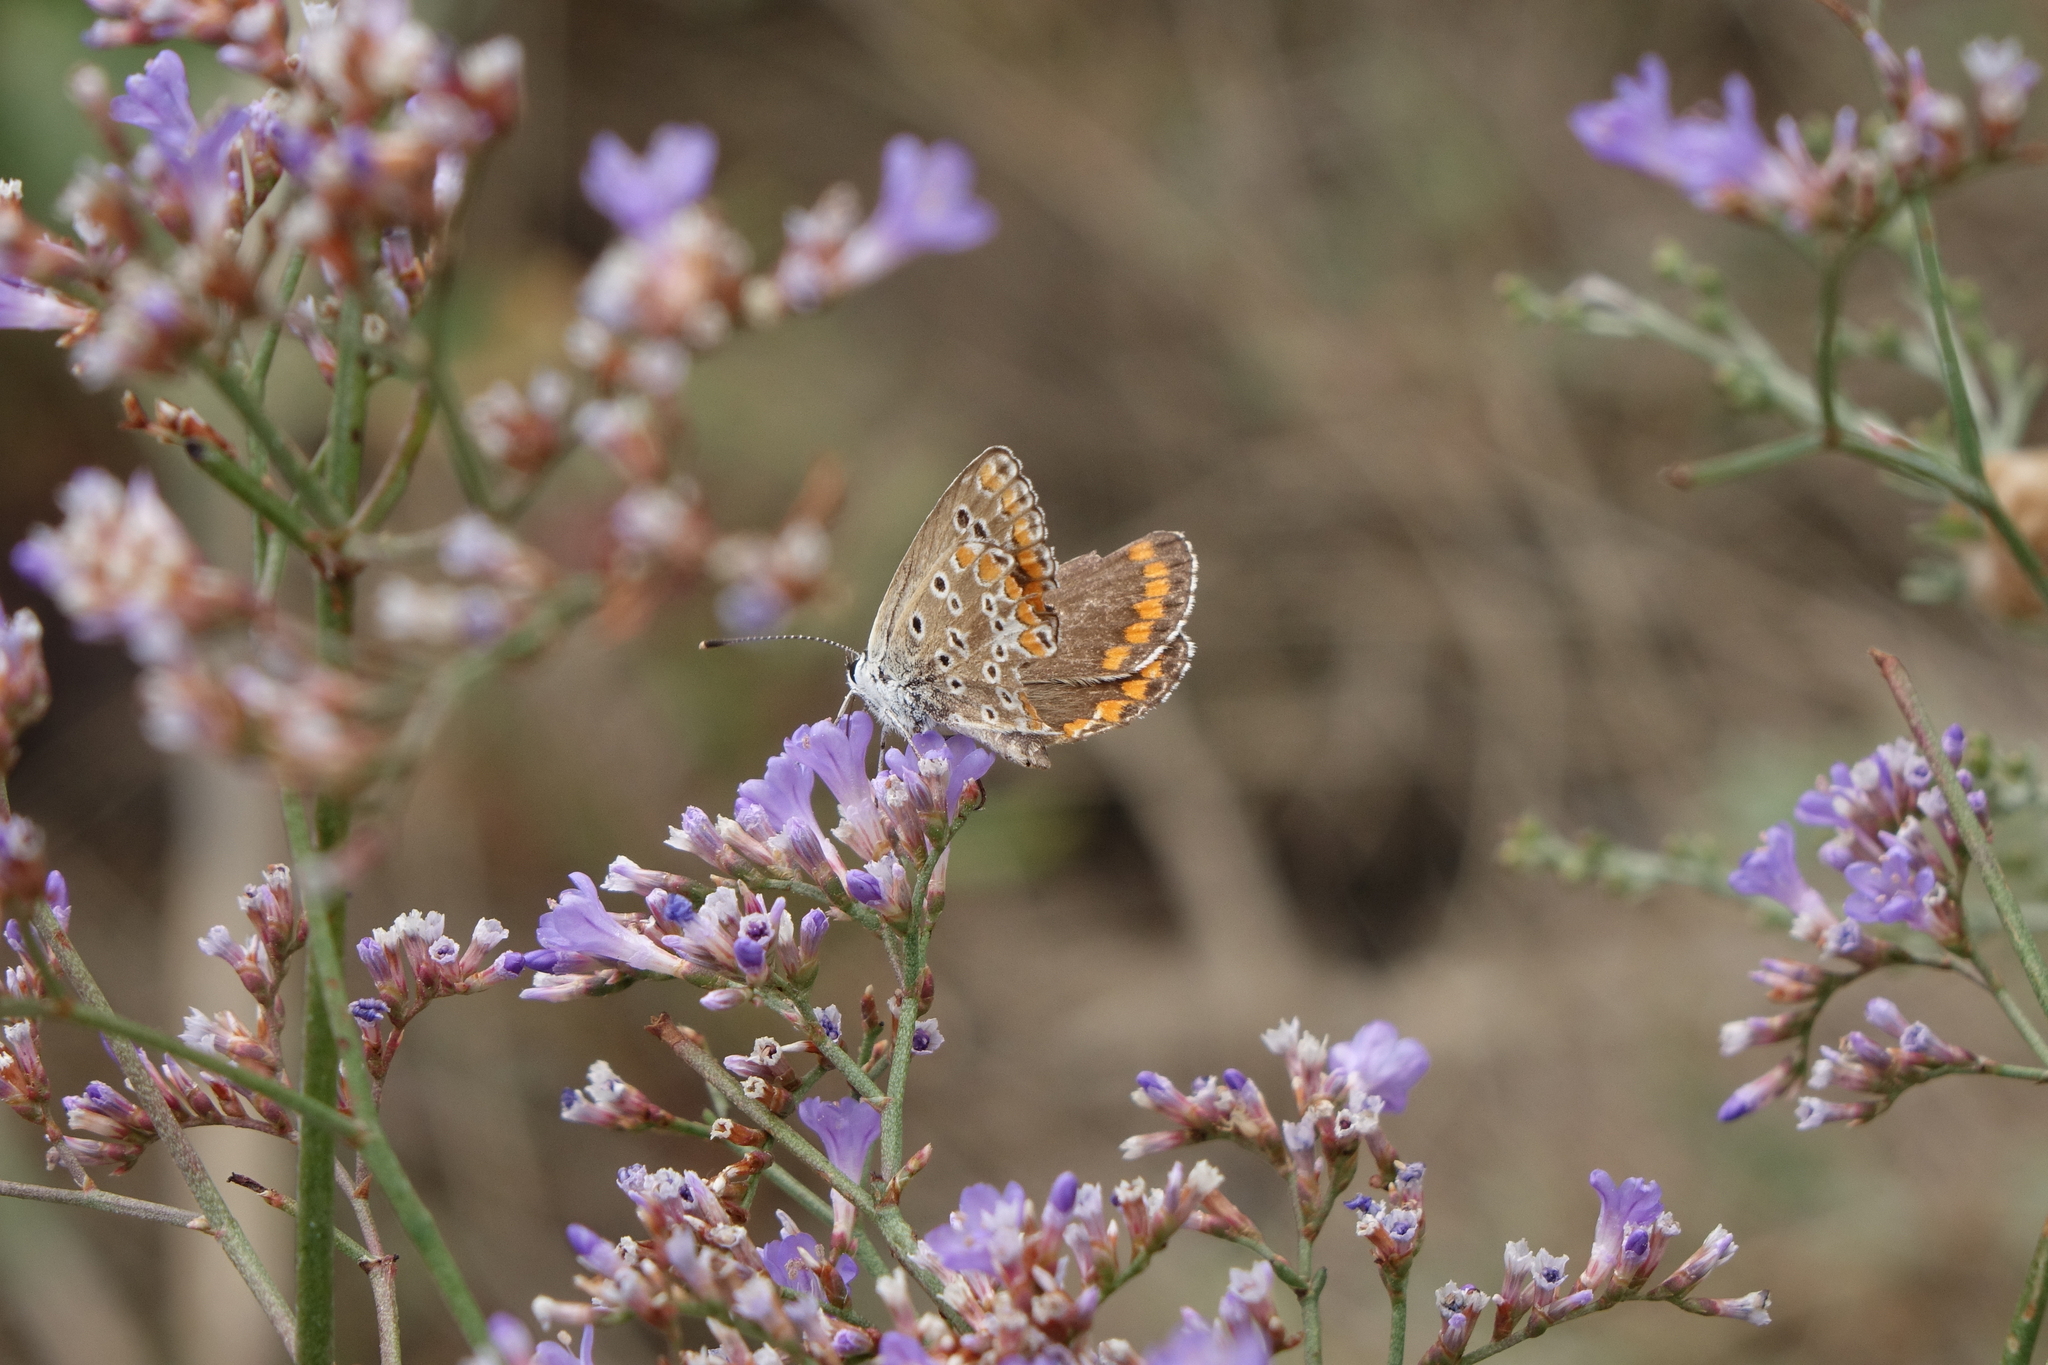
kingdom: Animalia
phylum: Arthropoda
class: Insecta
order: Lepidoptera
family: Lycaenidae
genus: Aricia
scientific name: Aricia agestis
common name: Brown argus
